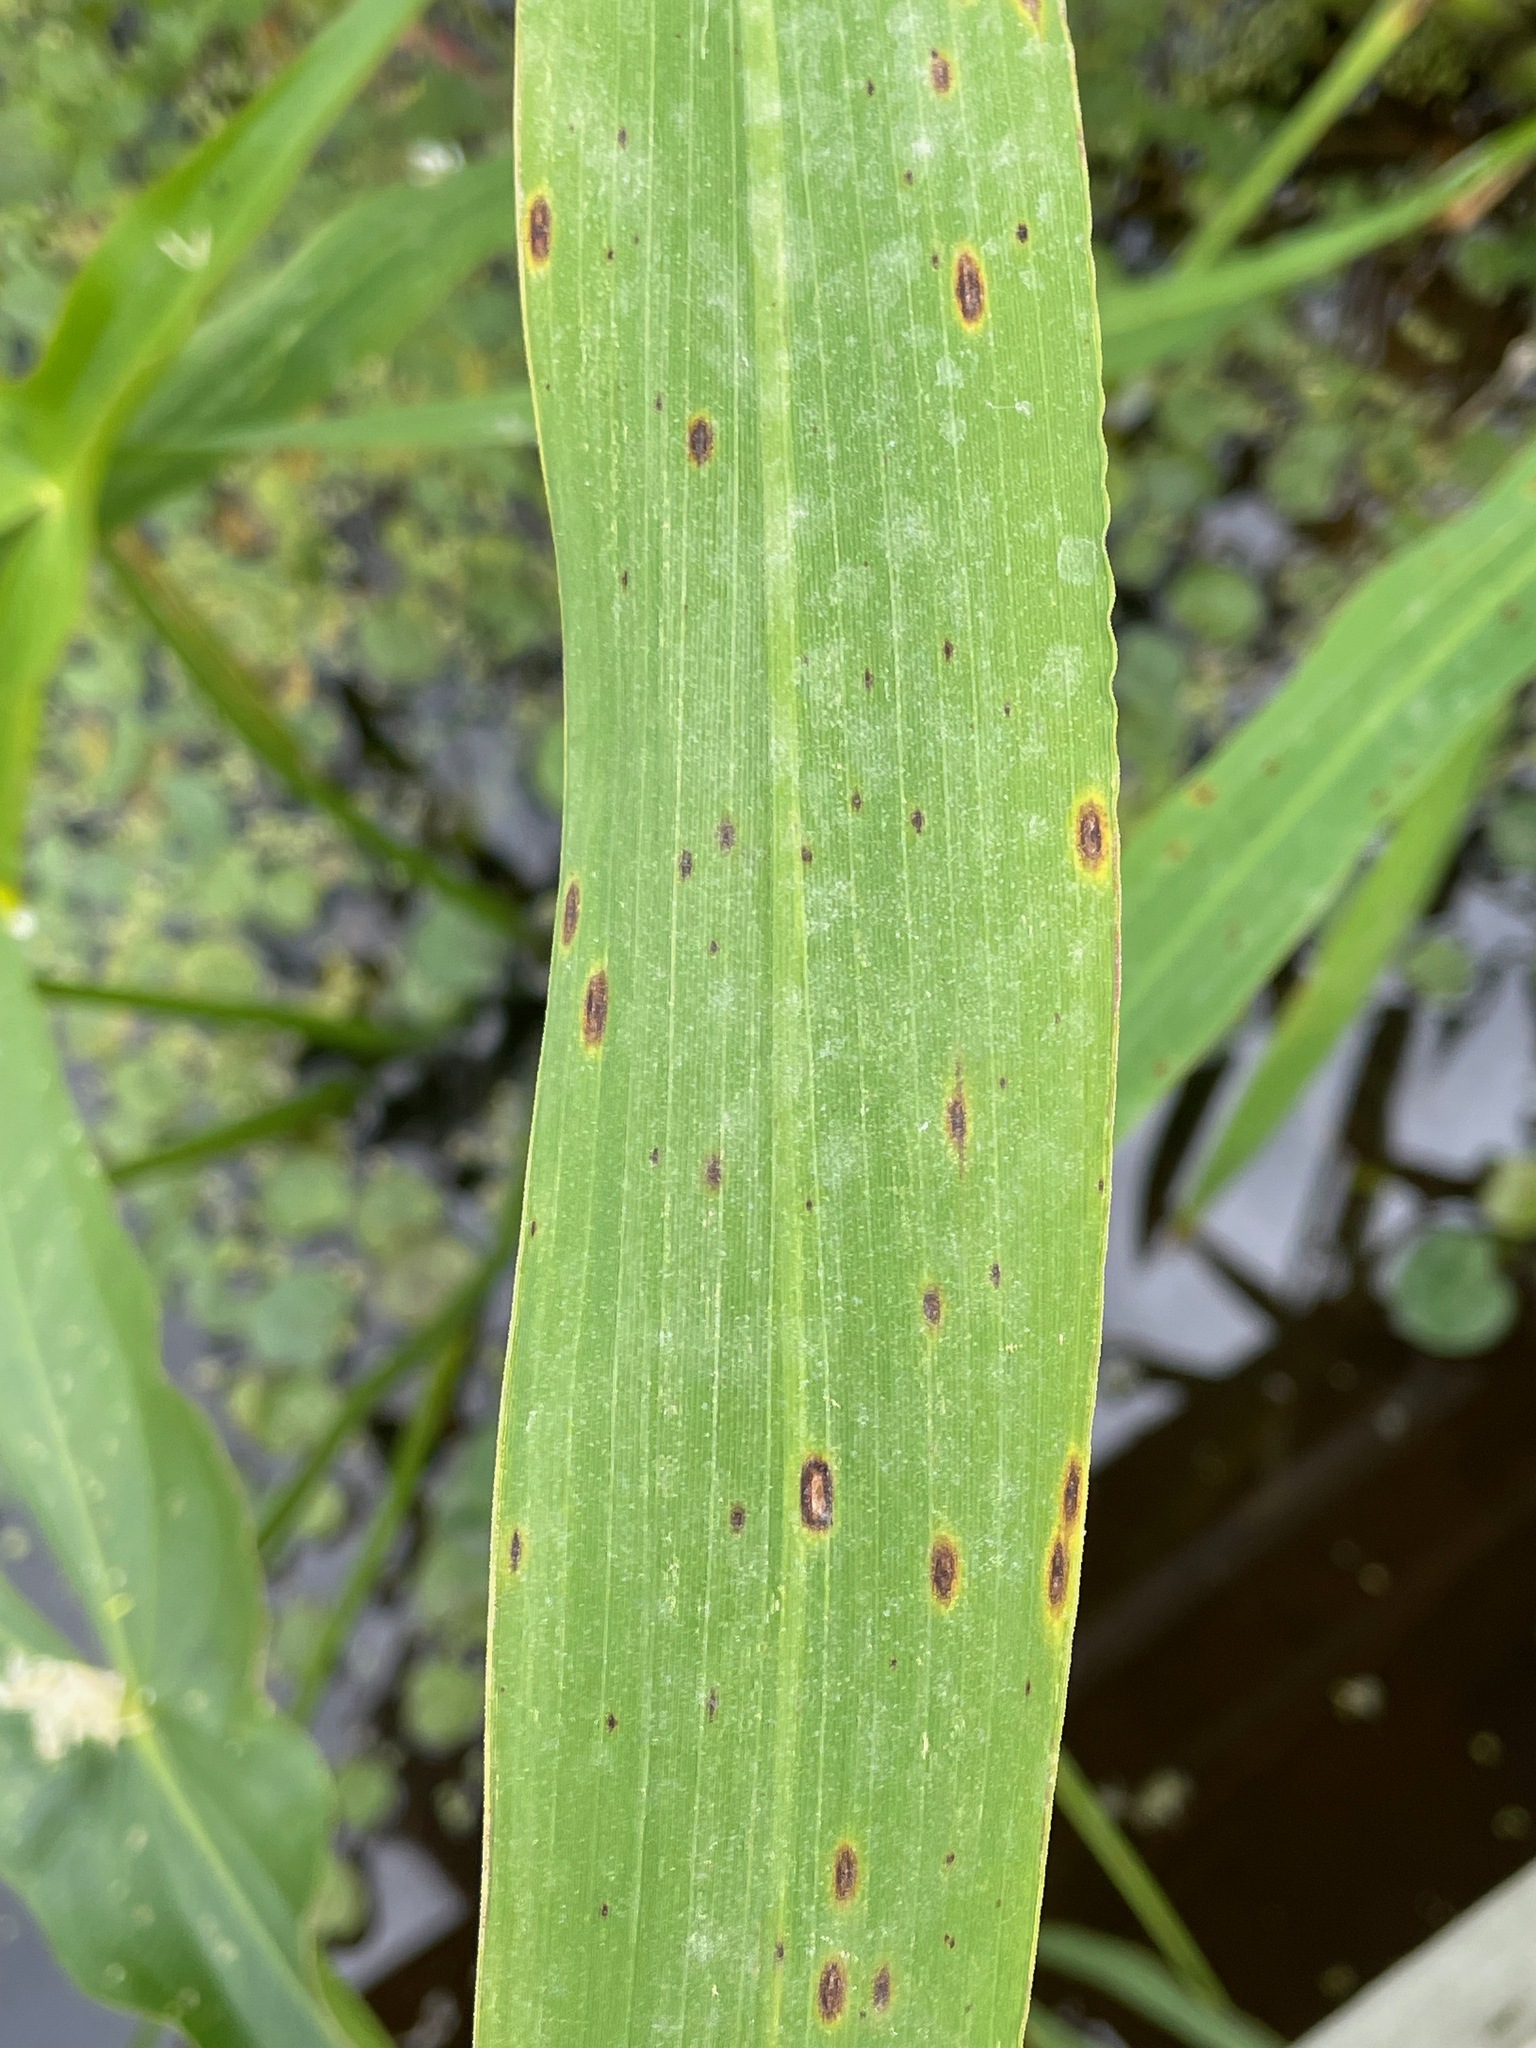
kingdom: Plantae
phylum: Tracheophyta
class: Liliopsida
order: Poales
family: Poaceae
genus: Zizania
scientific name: Zizania aquatica
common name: Annual wildrice
